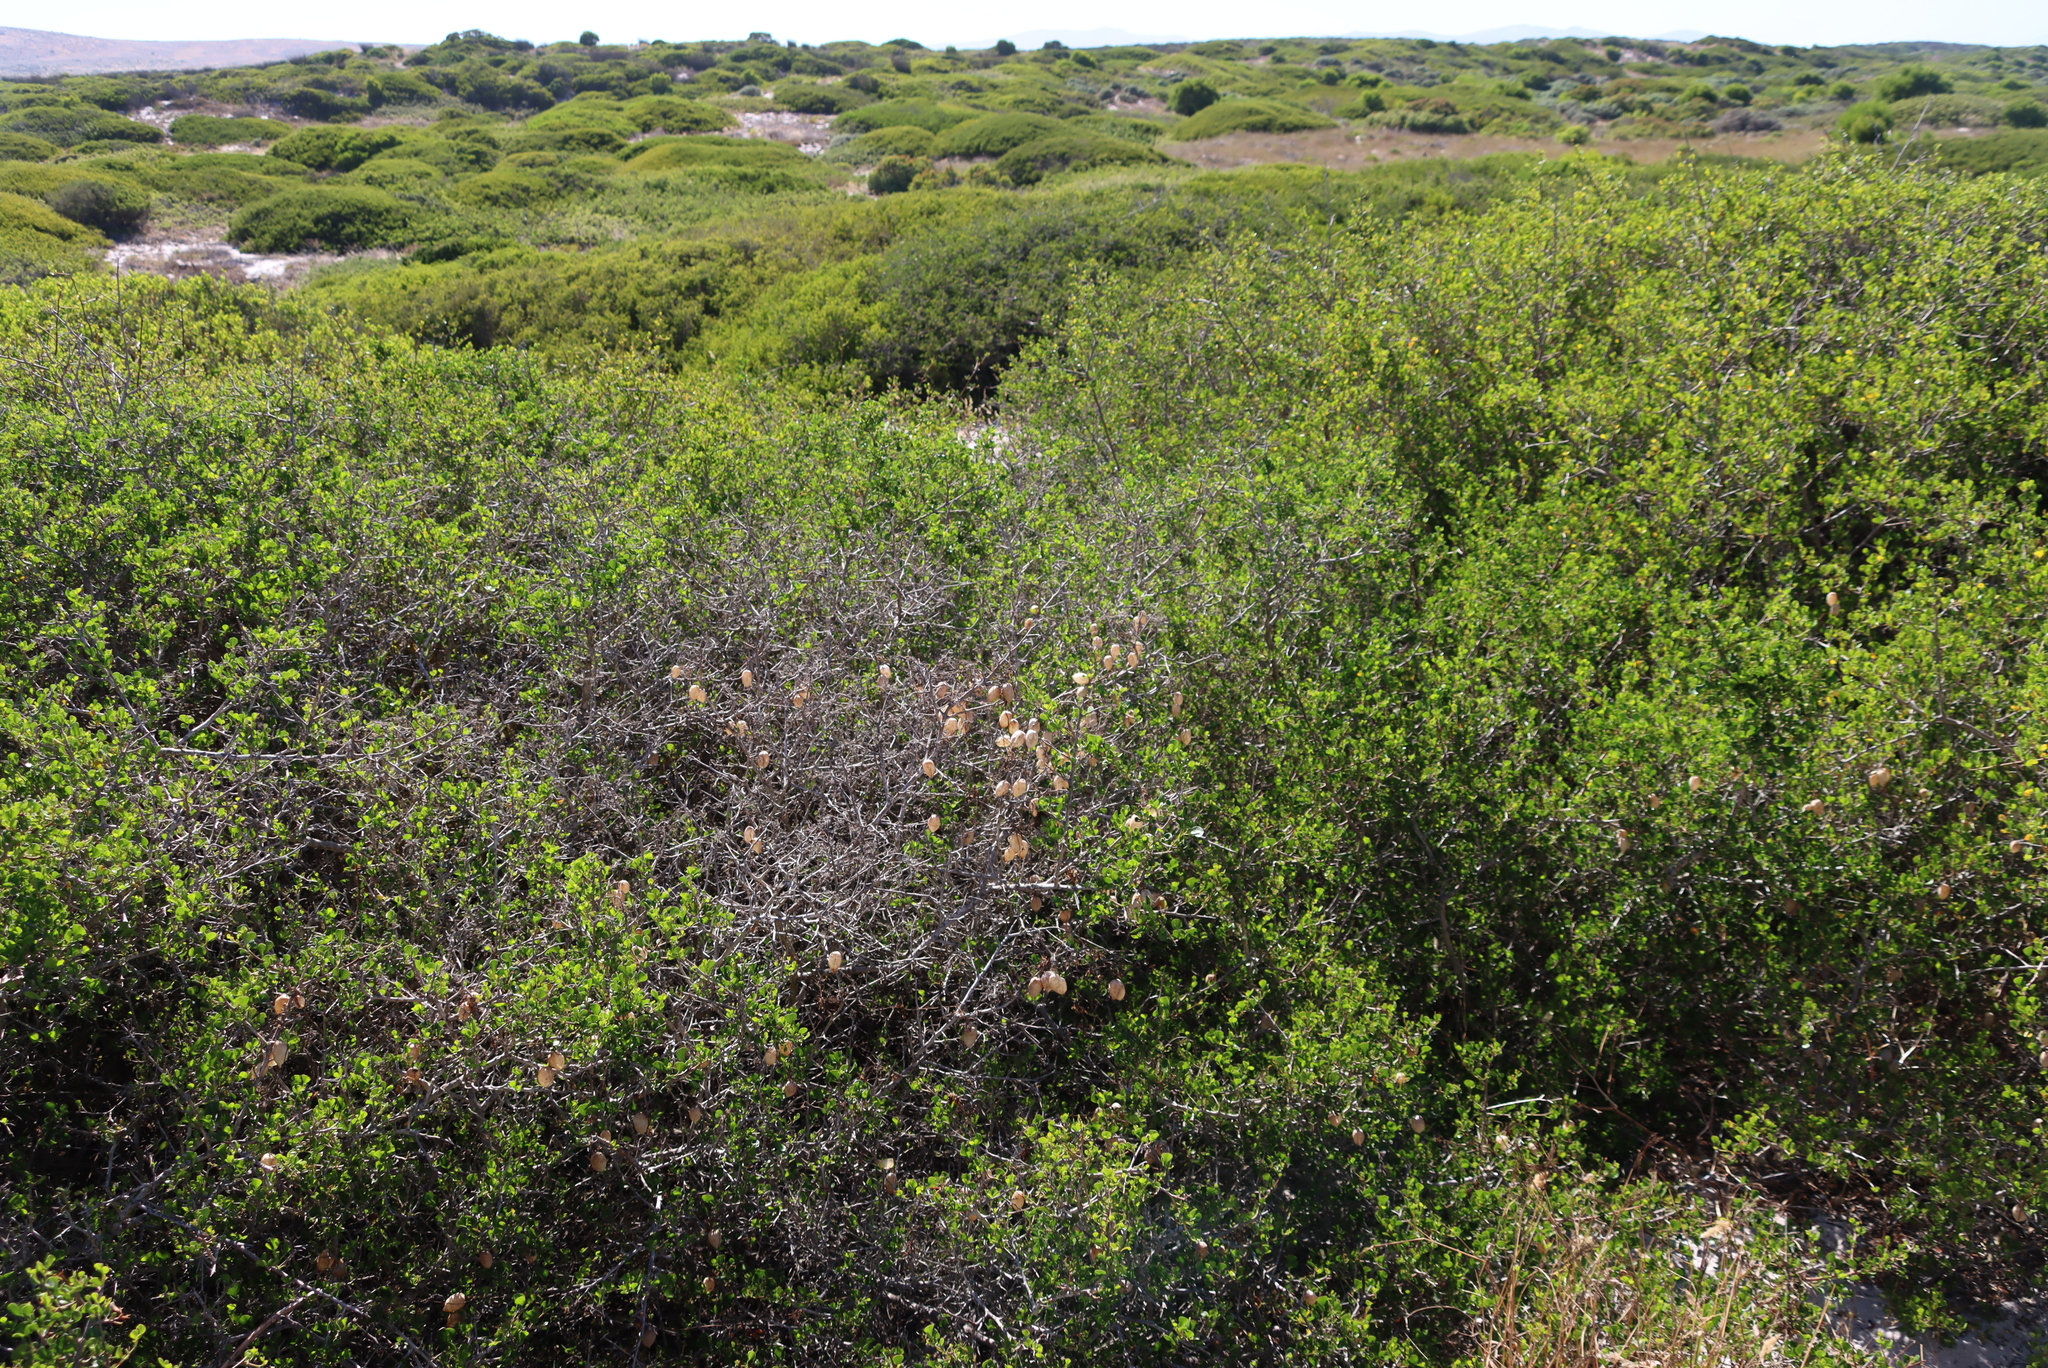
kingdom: Plantae
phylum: Tracheophyta
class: Magnoliopsida
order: Ranunculales
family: Papaveraceae
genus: Cysticapnos
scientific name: Cysticapnos vesicaria
